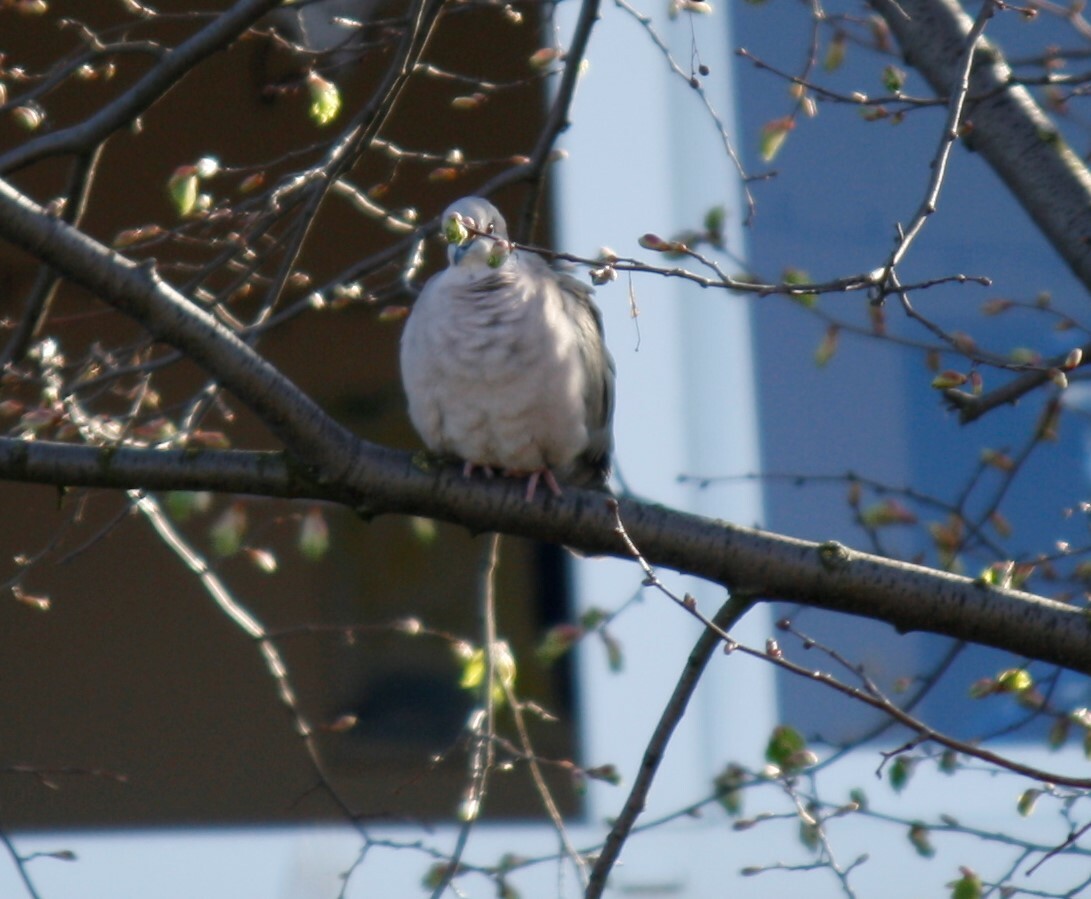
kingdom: Animalia
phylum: Chordata
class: Aves
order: Columbiformes
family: Columbidae
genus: Streptopelia
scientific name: Streptopelia decaocto
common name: Eurasian collared dove
